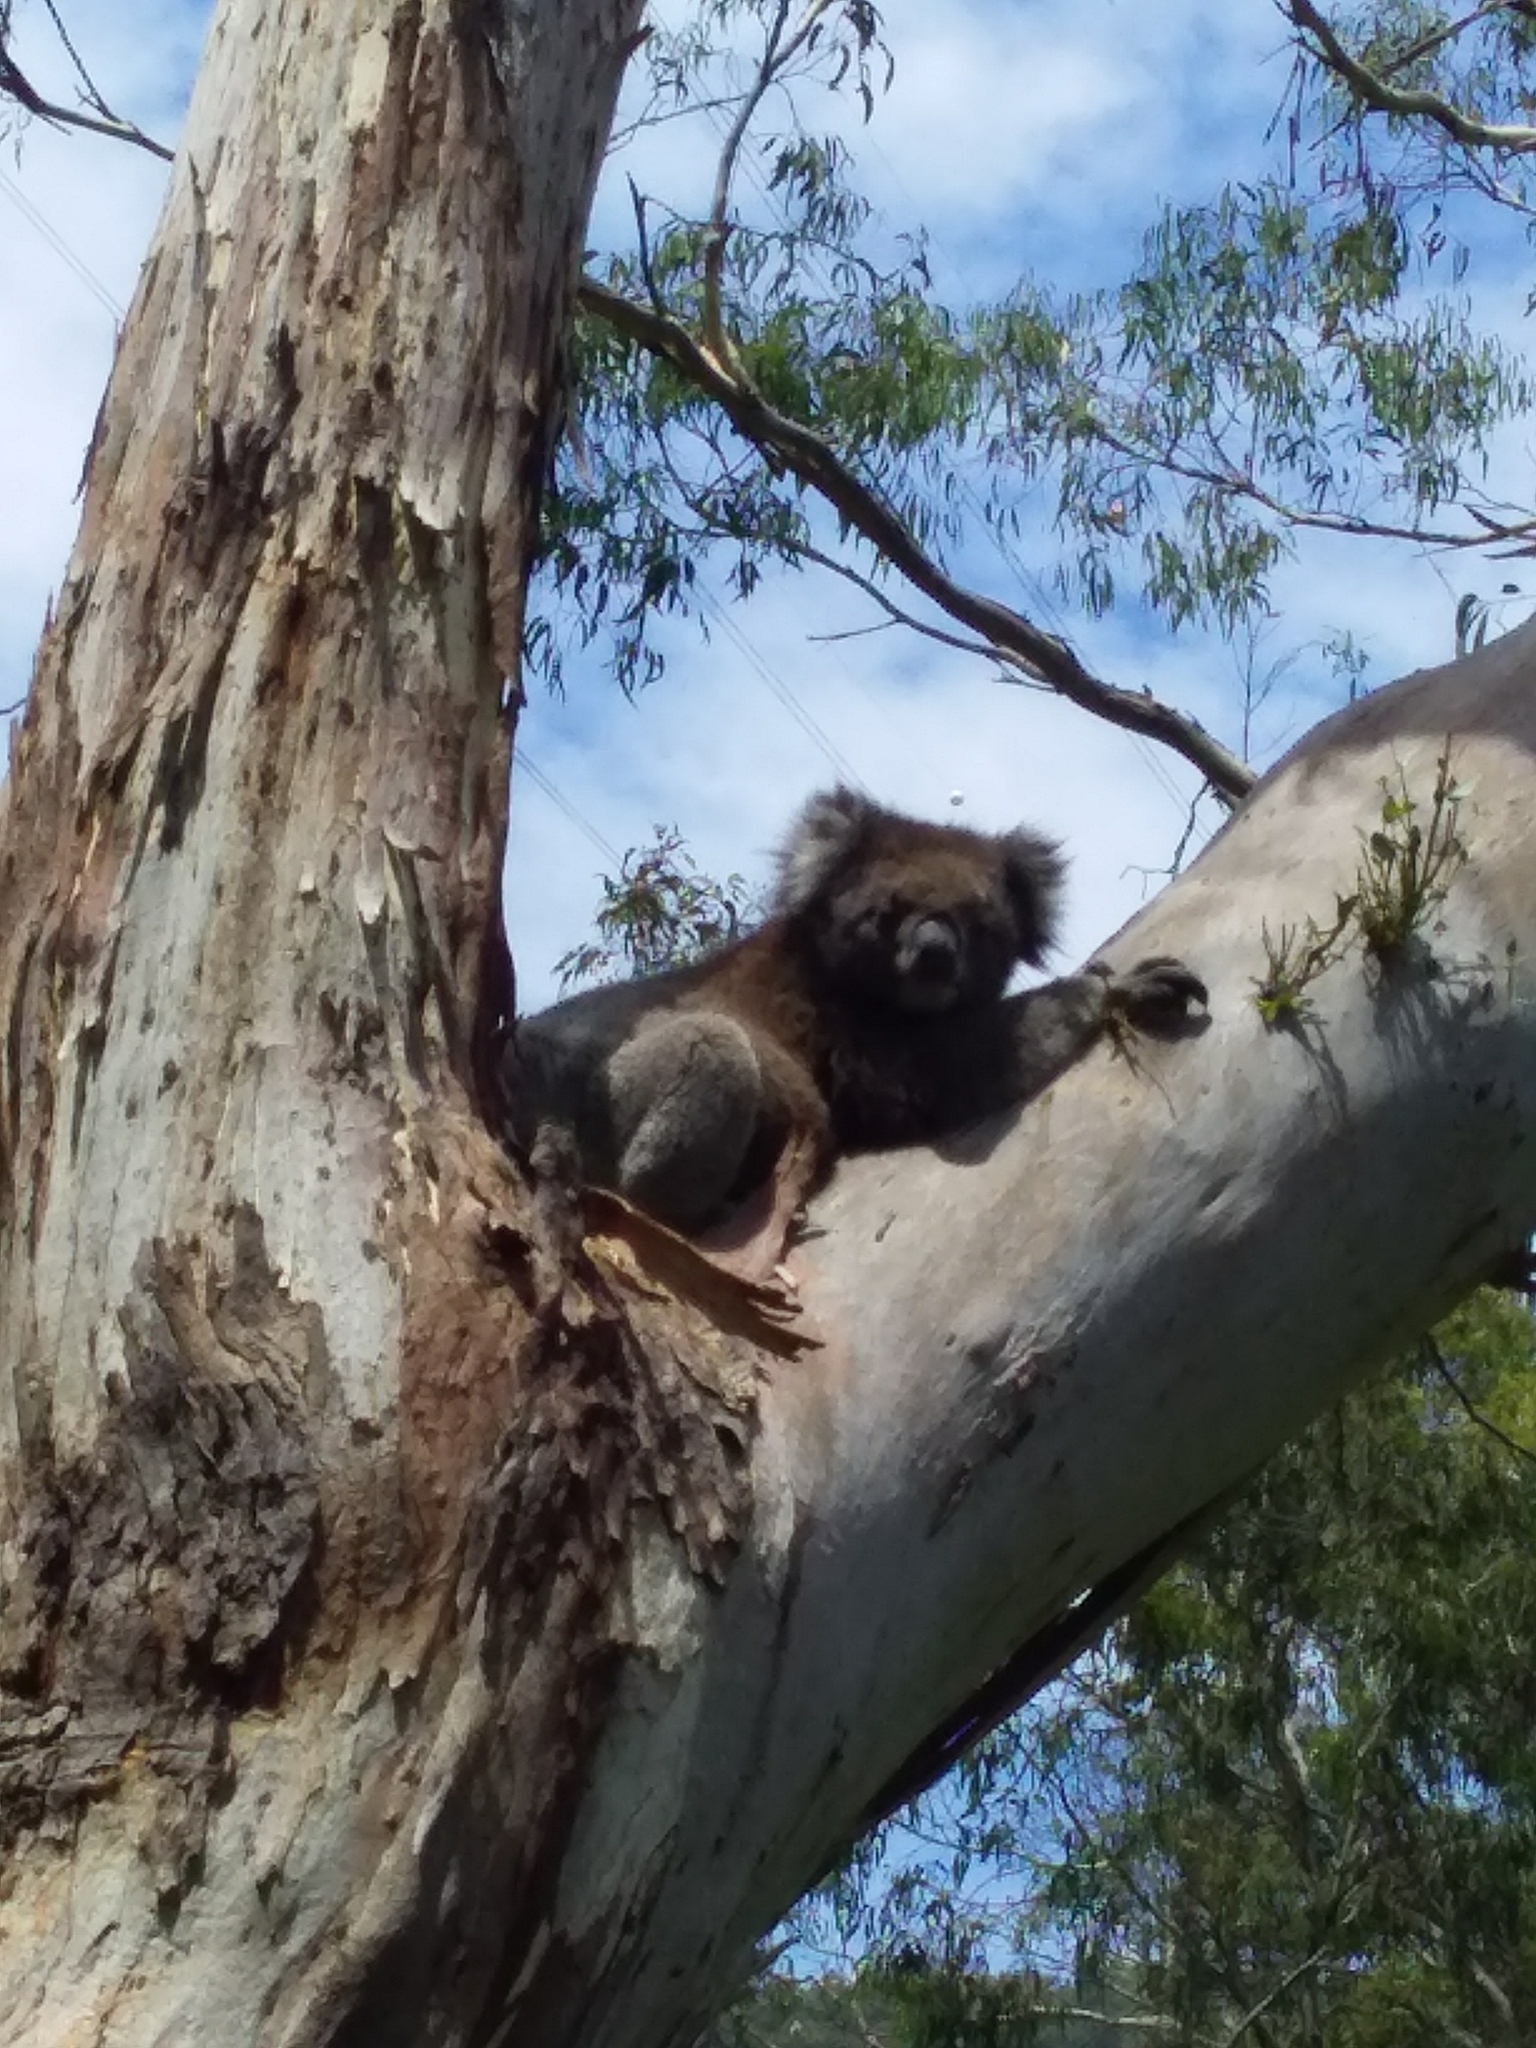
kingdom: Animalia
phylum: Chordata
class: Mammalia
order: Diprotodontia
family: Phascolarctidae
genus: Phascolarctos
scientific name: Phascolarctos cinereus
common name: Koala
